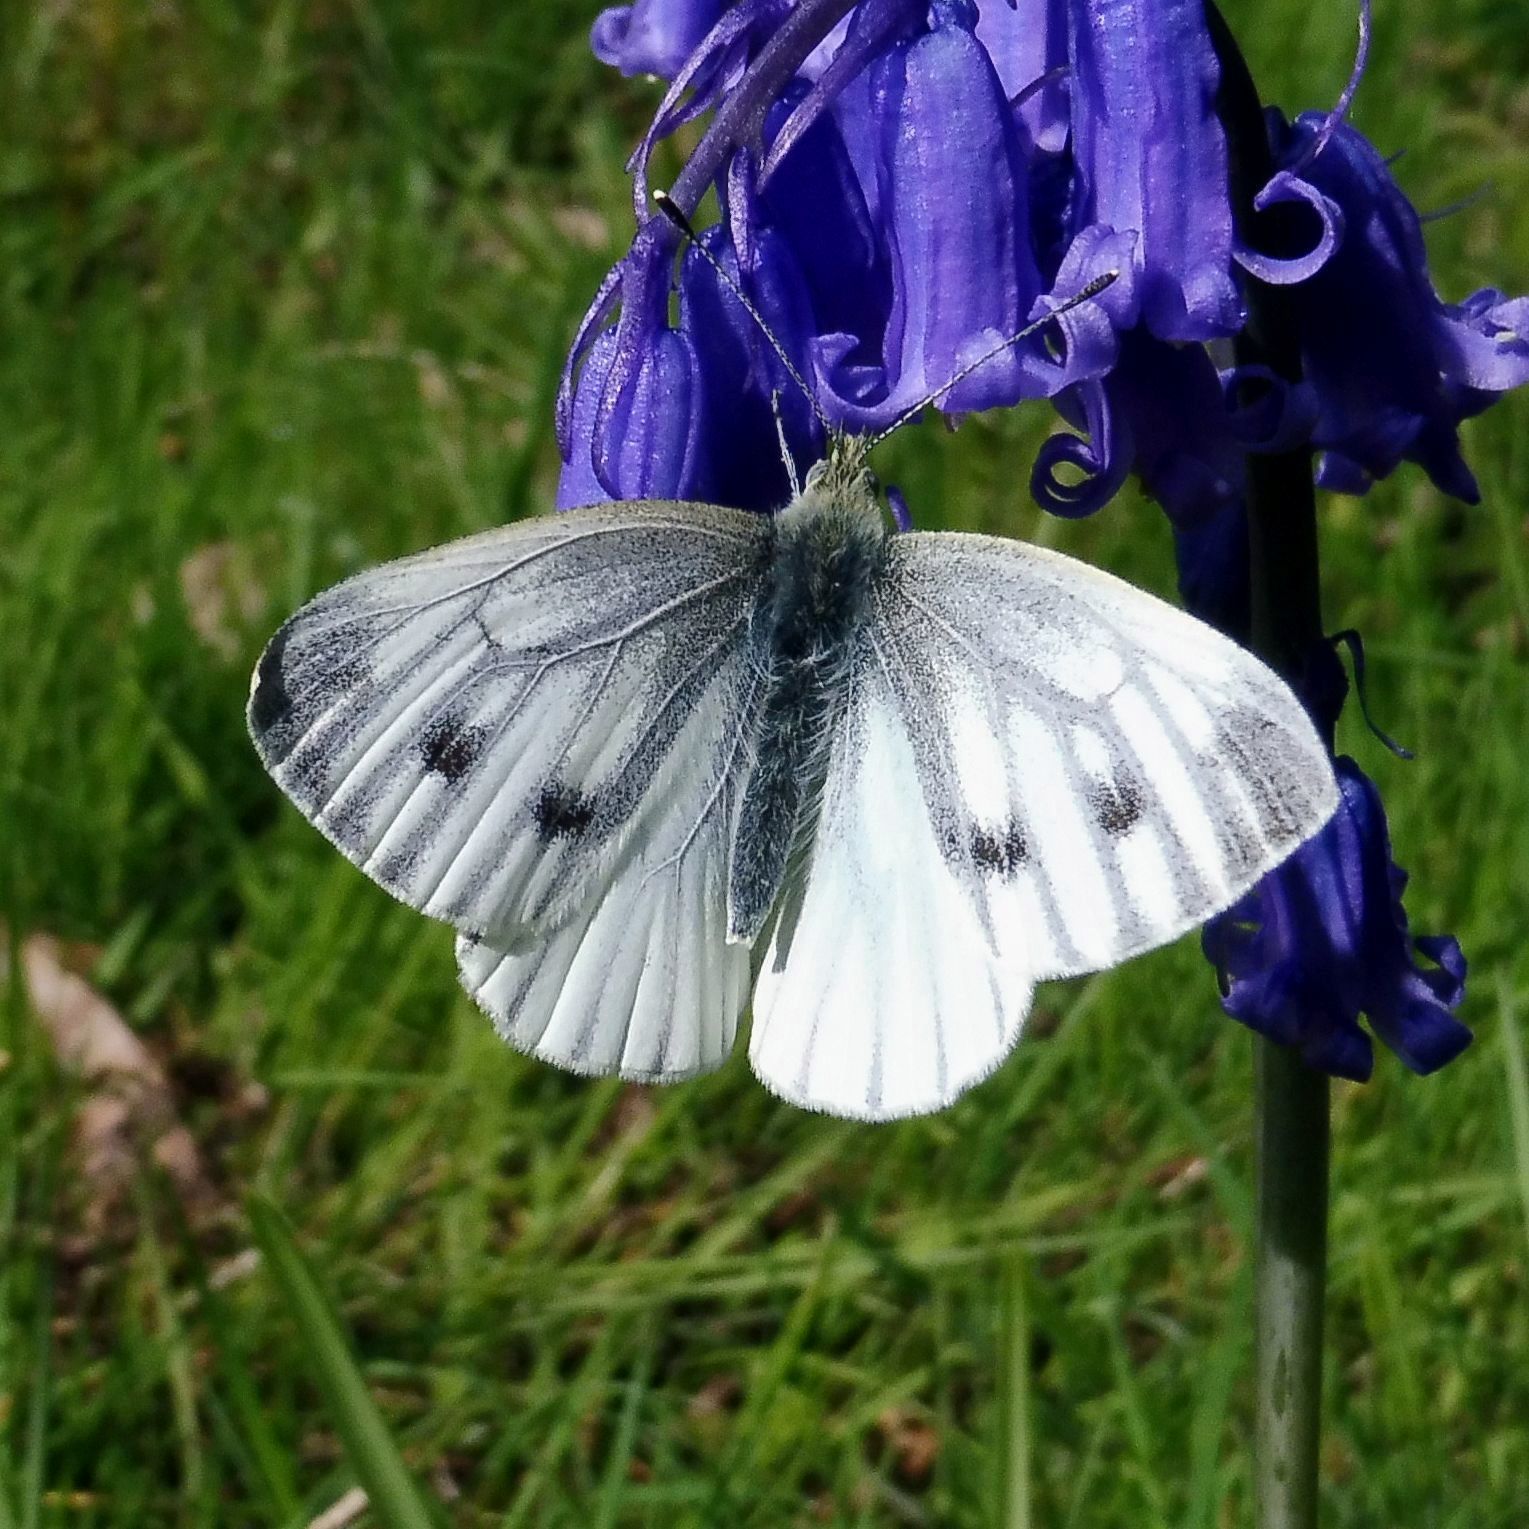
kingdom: Animalia
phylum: Arthropoda
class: Insecta
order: Lepidoptera
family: Pieridae
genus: Pieris
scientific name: Pieris napi
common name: Green-veined white
